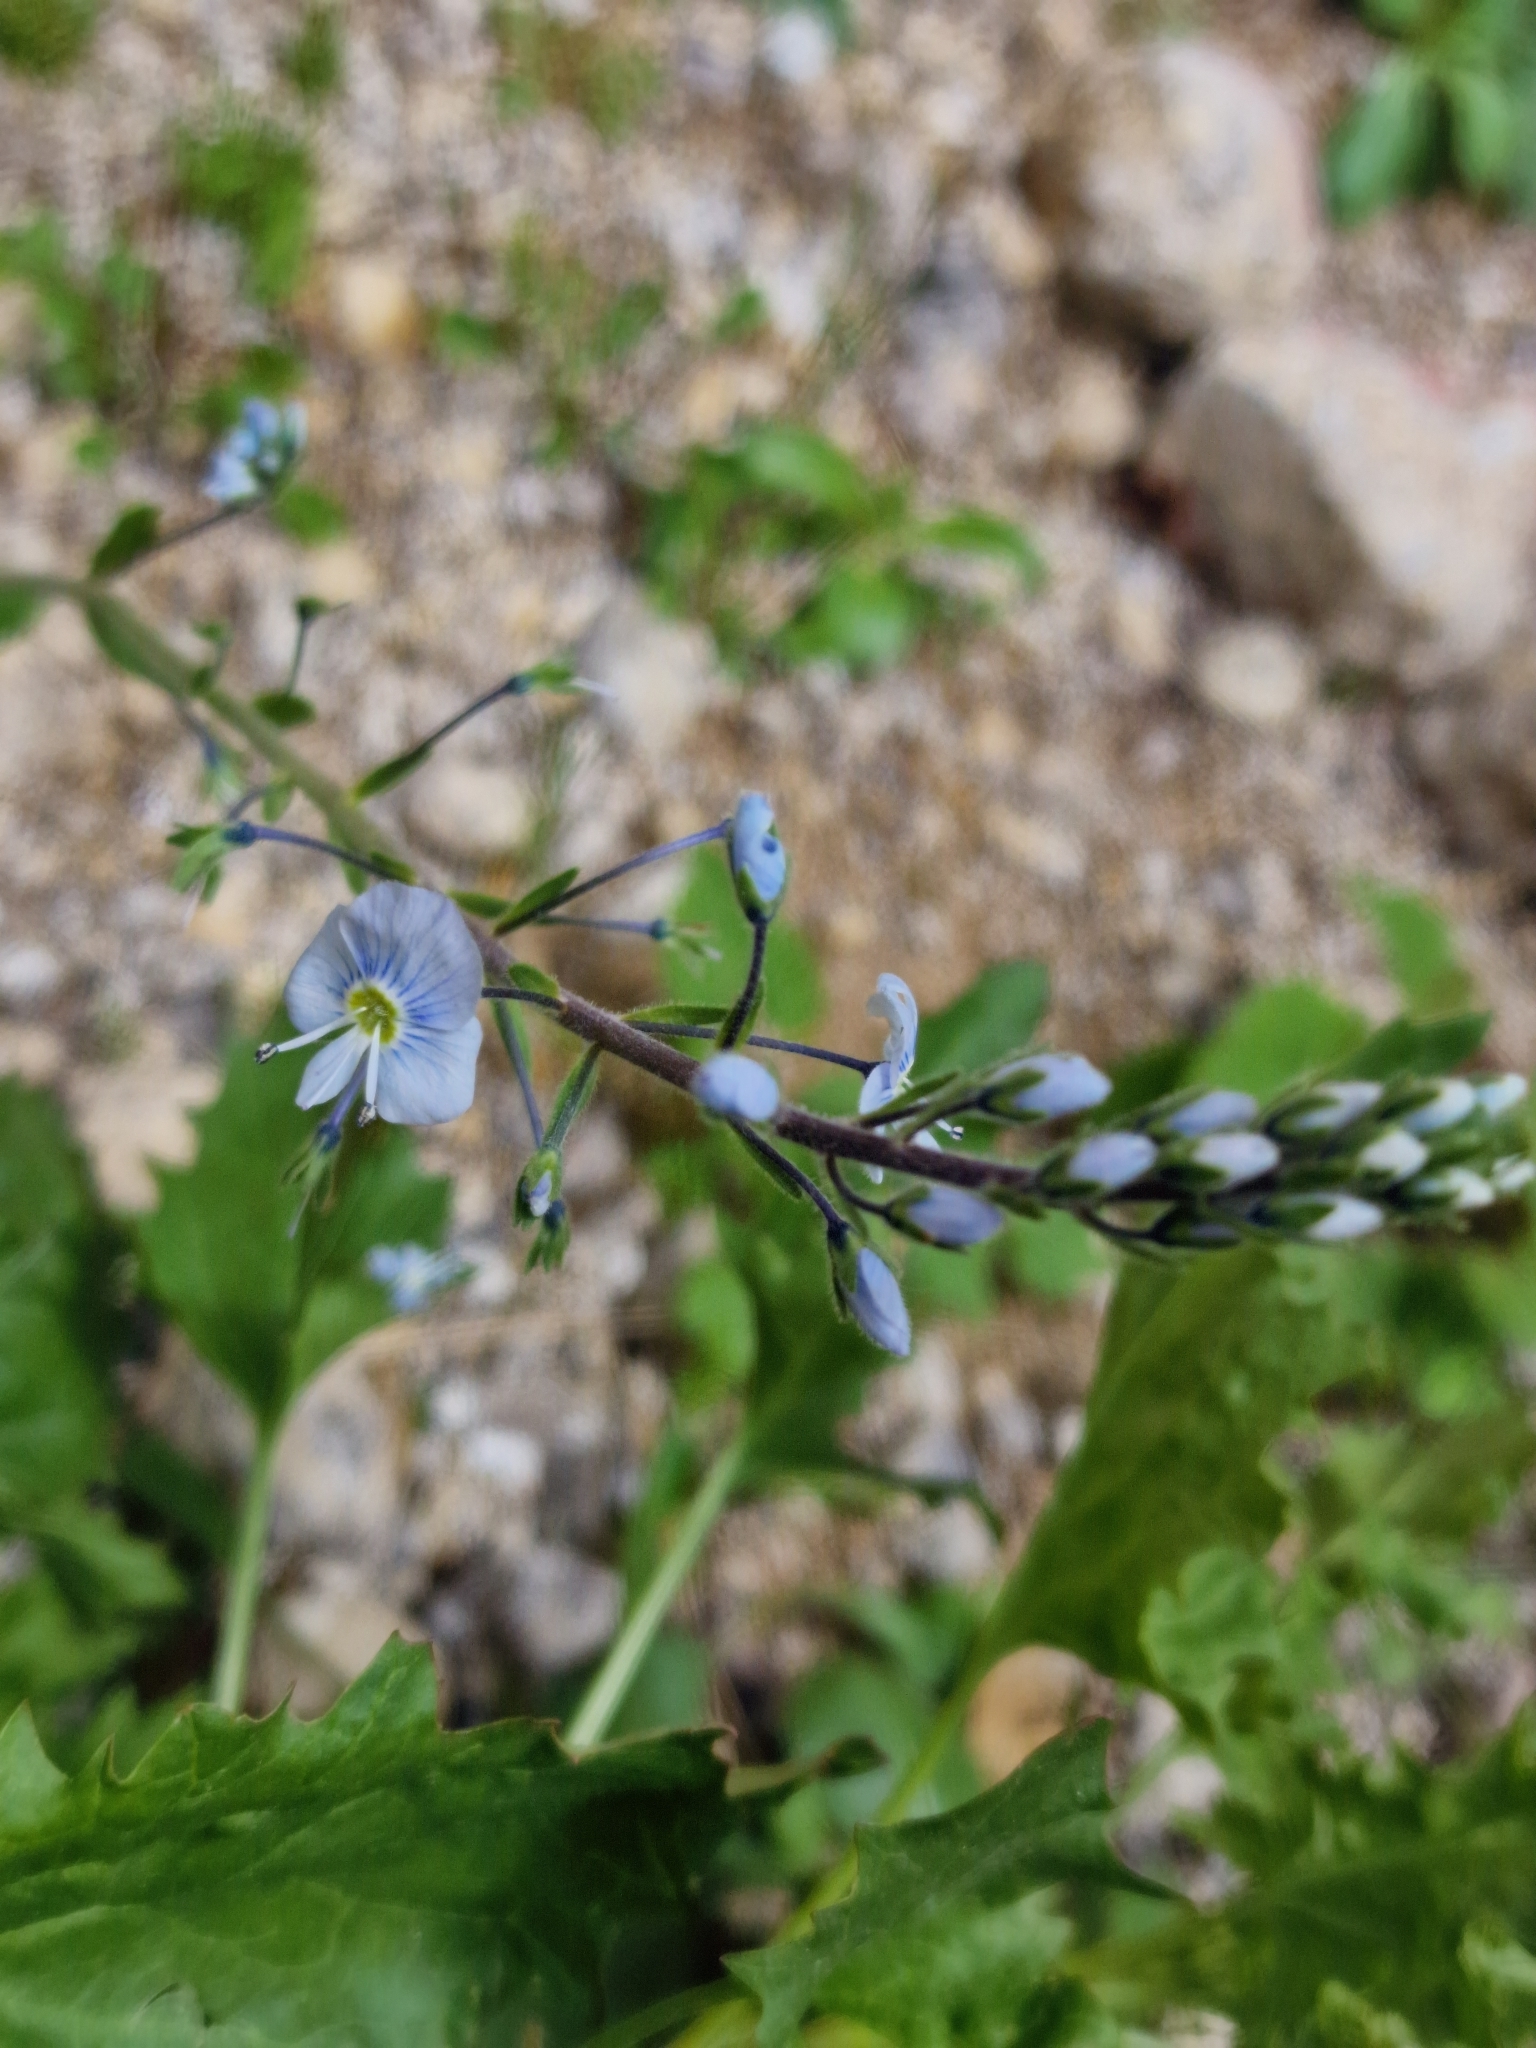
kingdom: Plantae
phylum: Tracheophyta
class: Magnoliopsida
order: Lamiales
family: Plantaginaceae
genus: Veronica
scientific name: Veronica gentianoides
